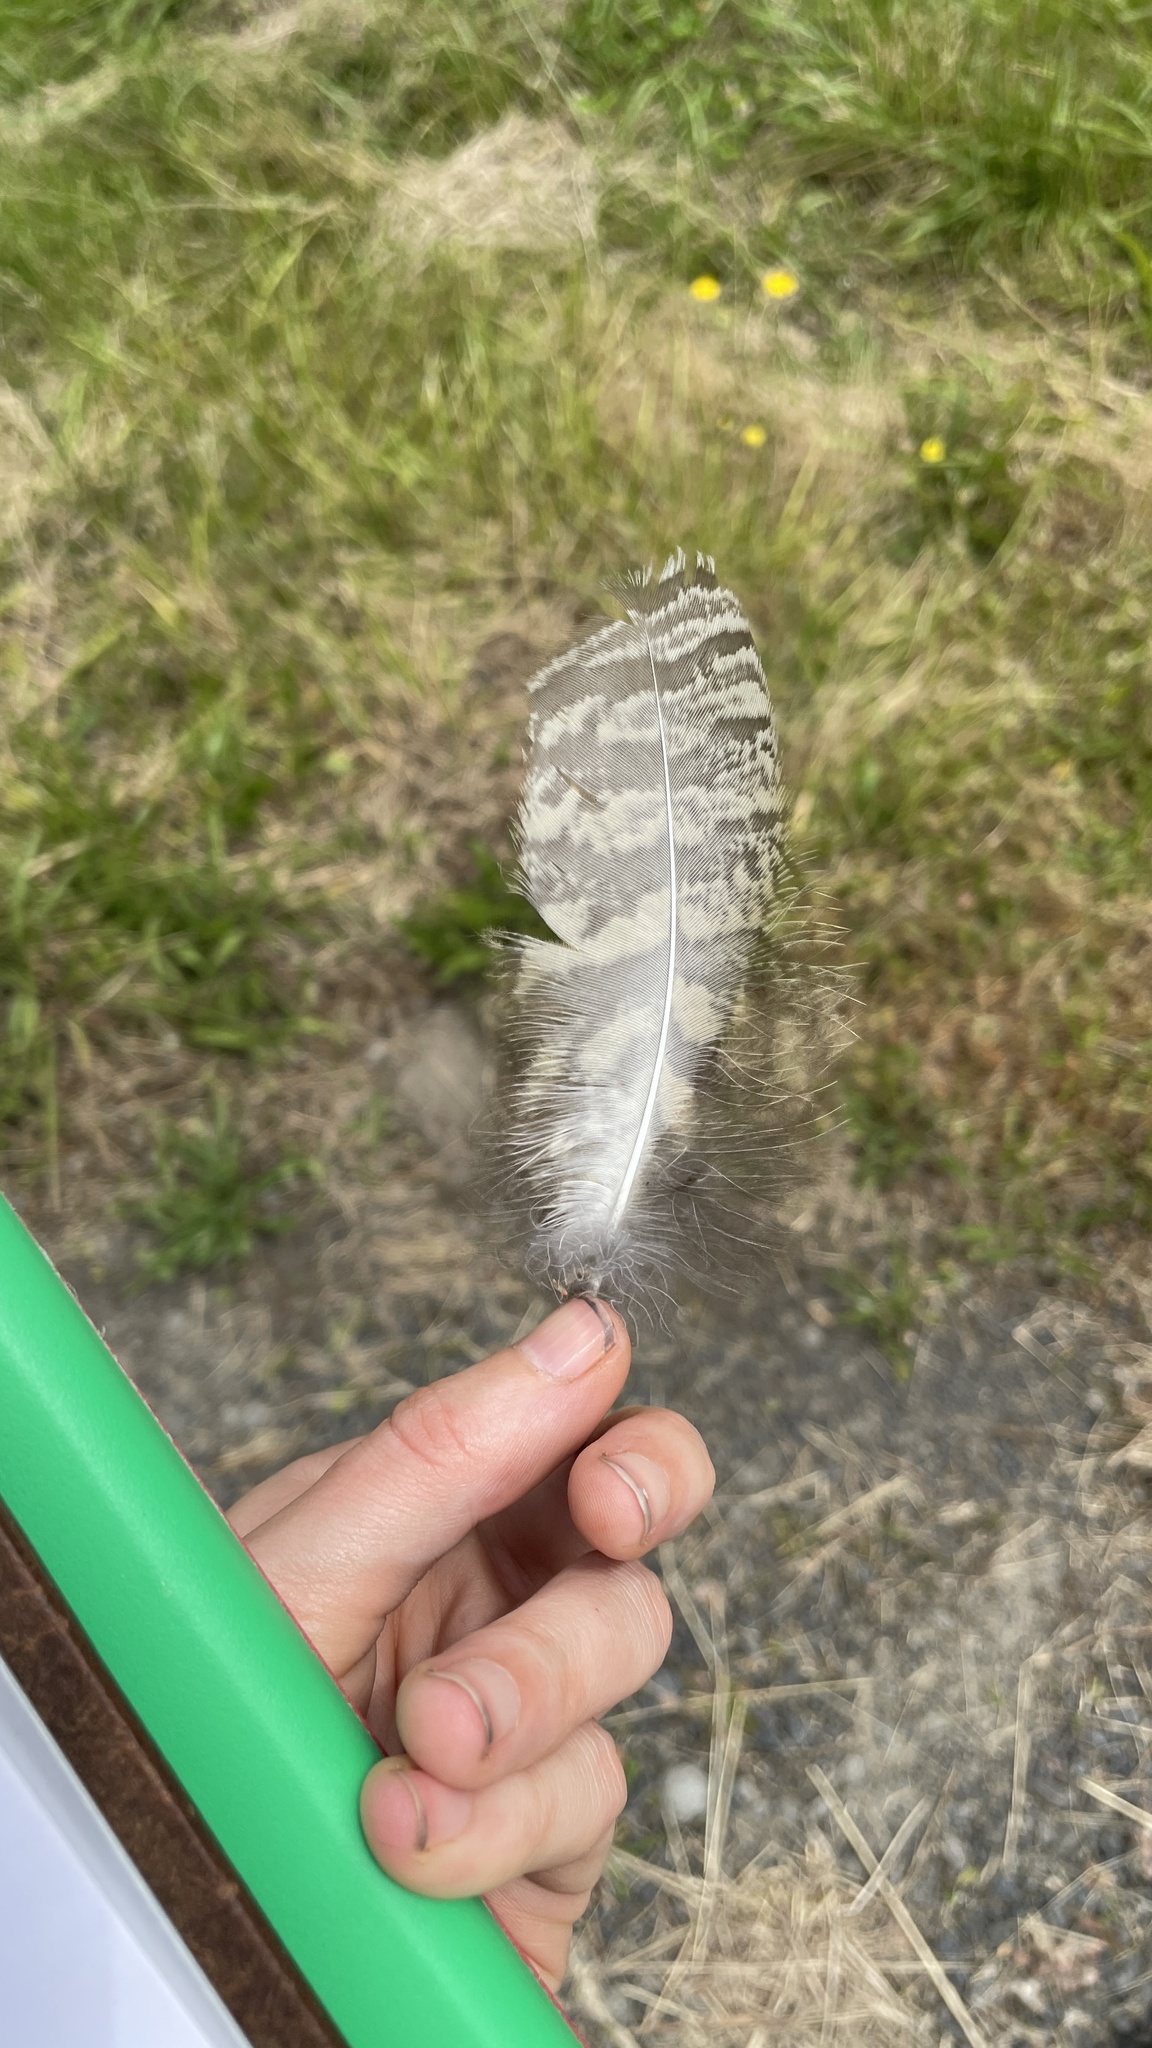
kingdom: Animalia
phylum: Chordata
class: Aves
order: Strigiformes
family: Strigidae
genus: Bubo
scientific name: Bubo virginianus
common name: Great horned owl
